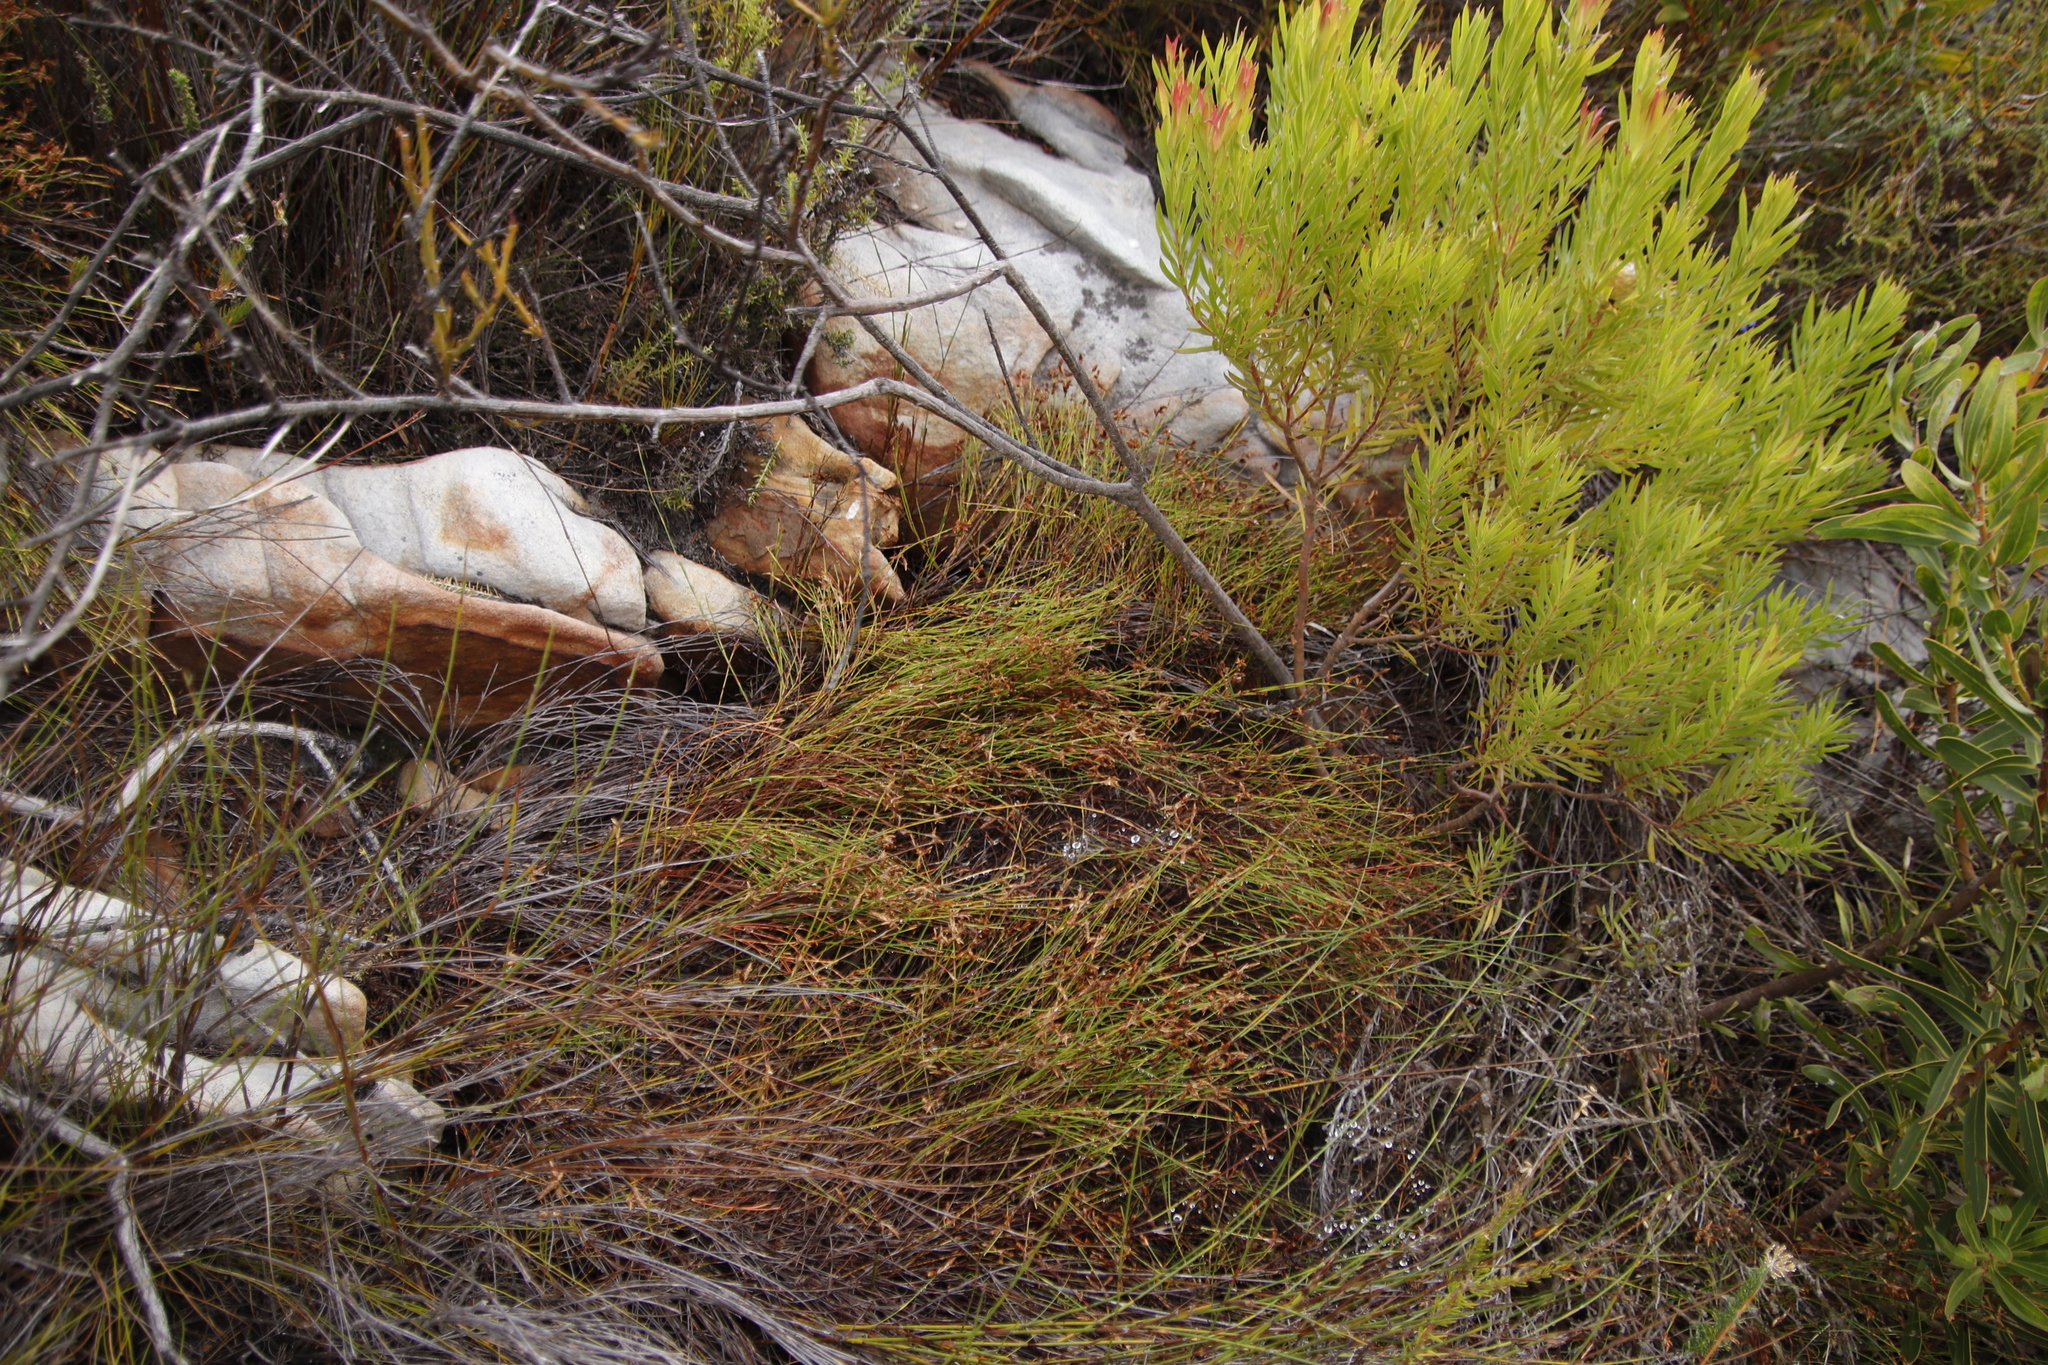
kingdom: Plantae
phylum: Tracheophyta
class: Magnoliopsida
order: Proteales
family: Proteaceae
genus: Leucadendron
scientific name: Leucadendron xanthoconus
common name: Sickle-leaf conebush
